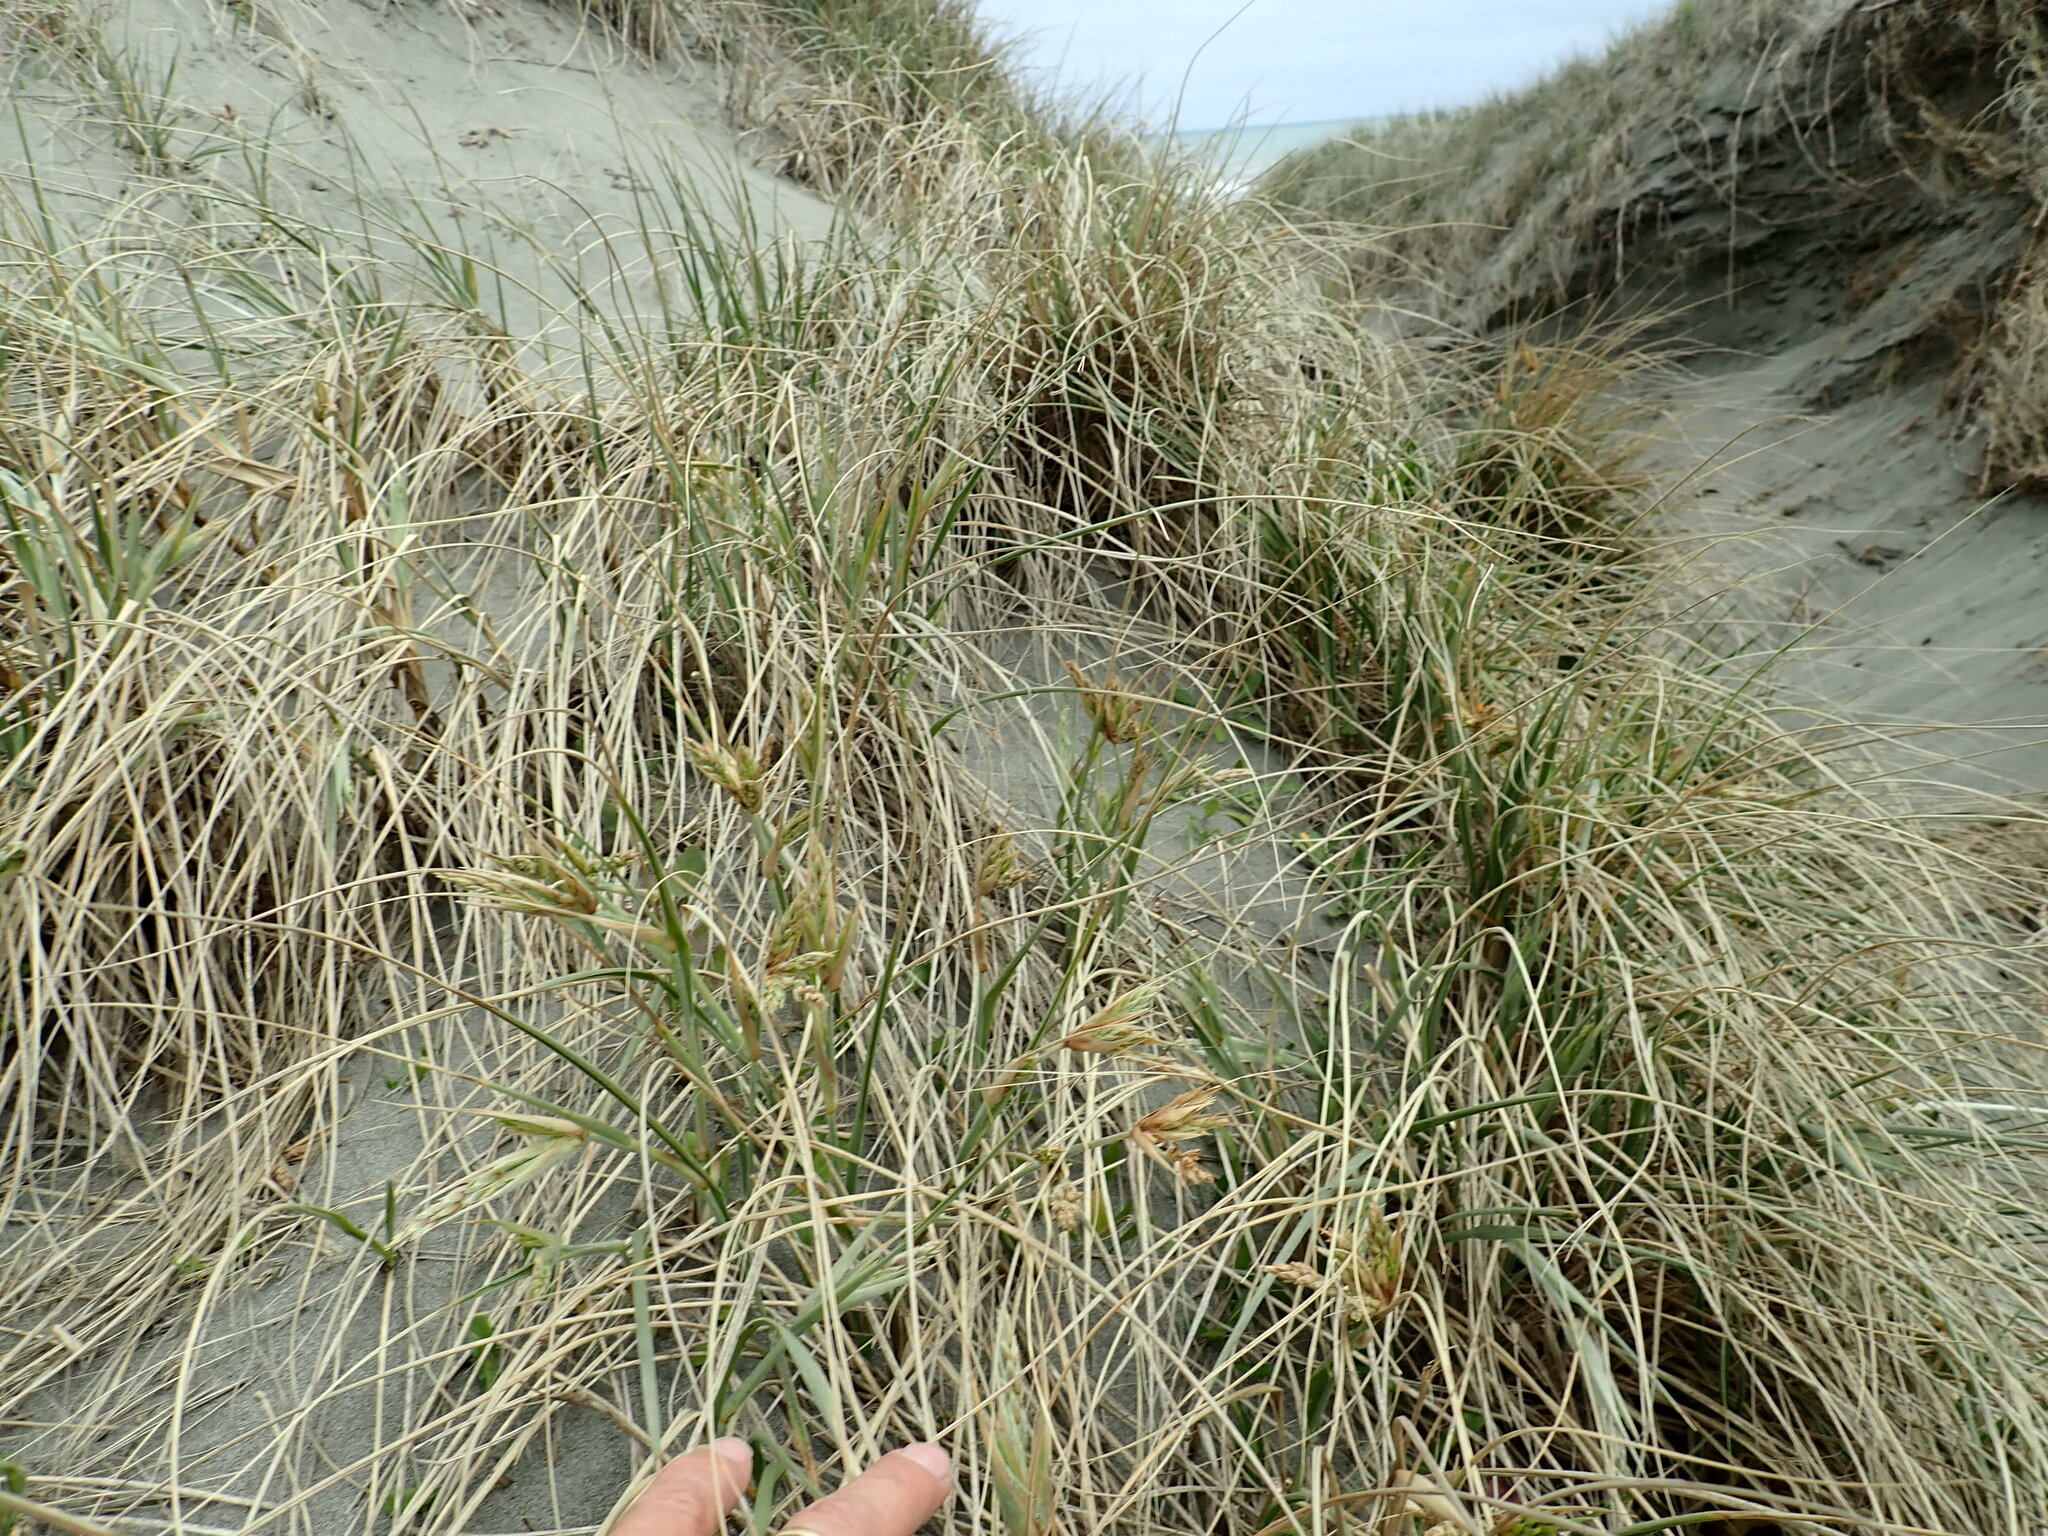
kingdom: Plantae
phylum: Tracheophyta
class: Liliopsida
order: Poales
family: Poaceae
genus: Spinifex
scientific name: Spinifex sericeus
